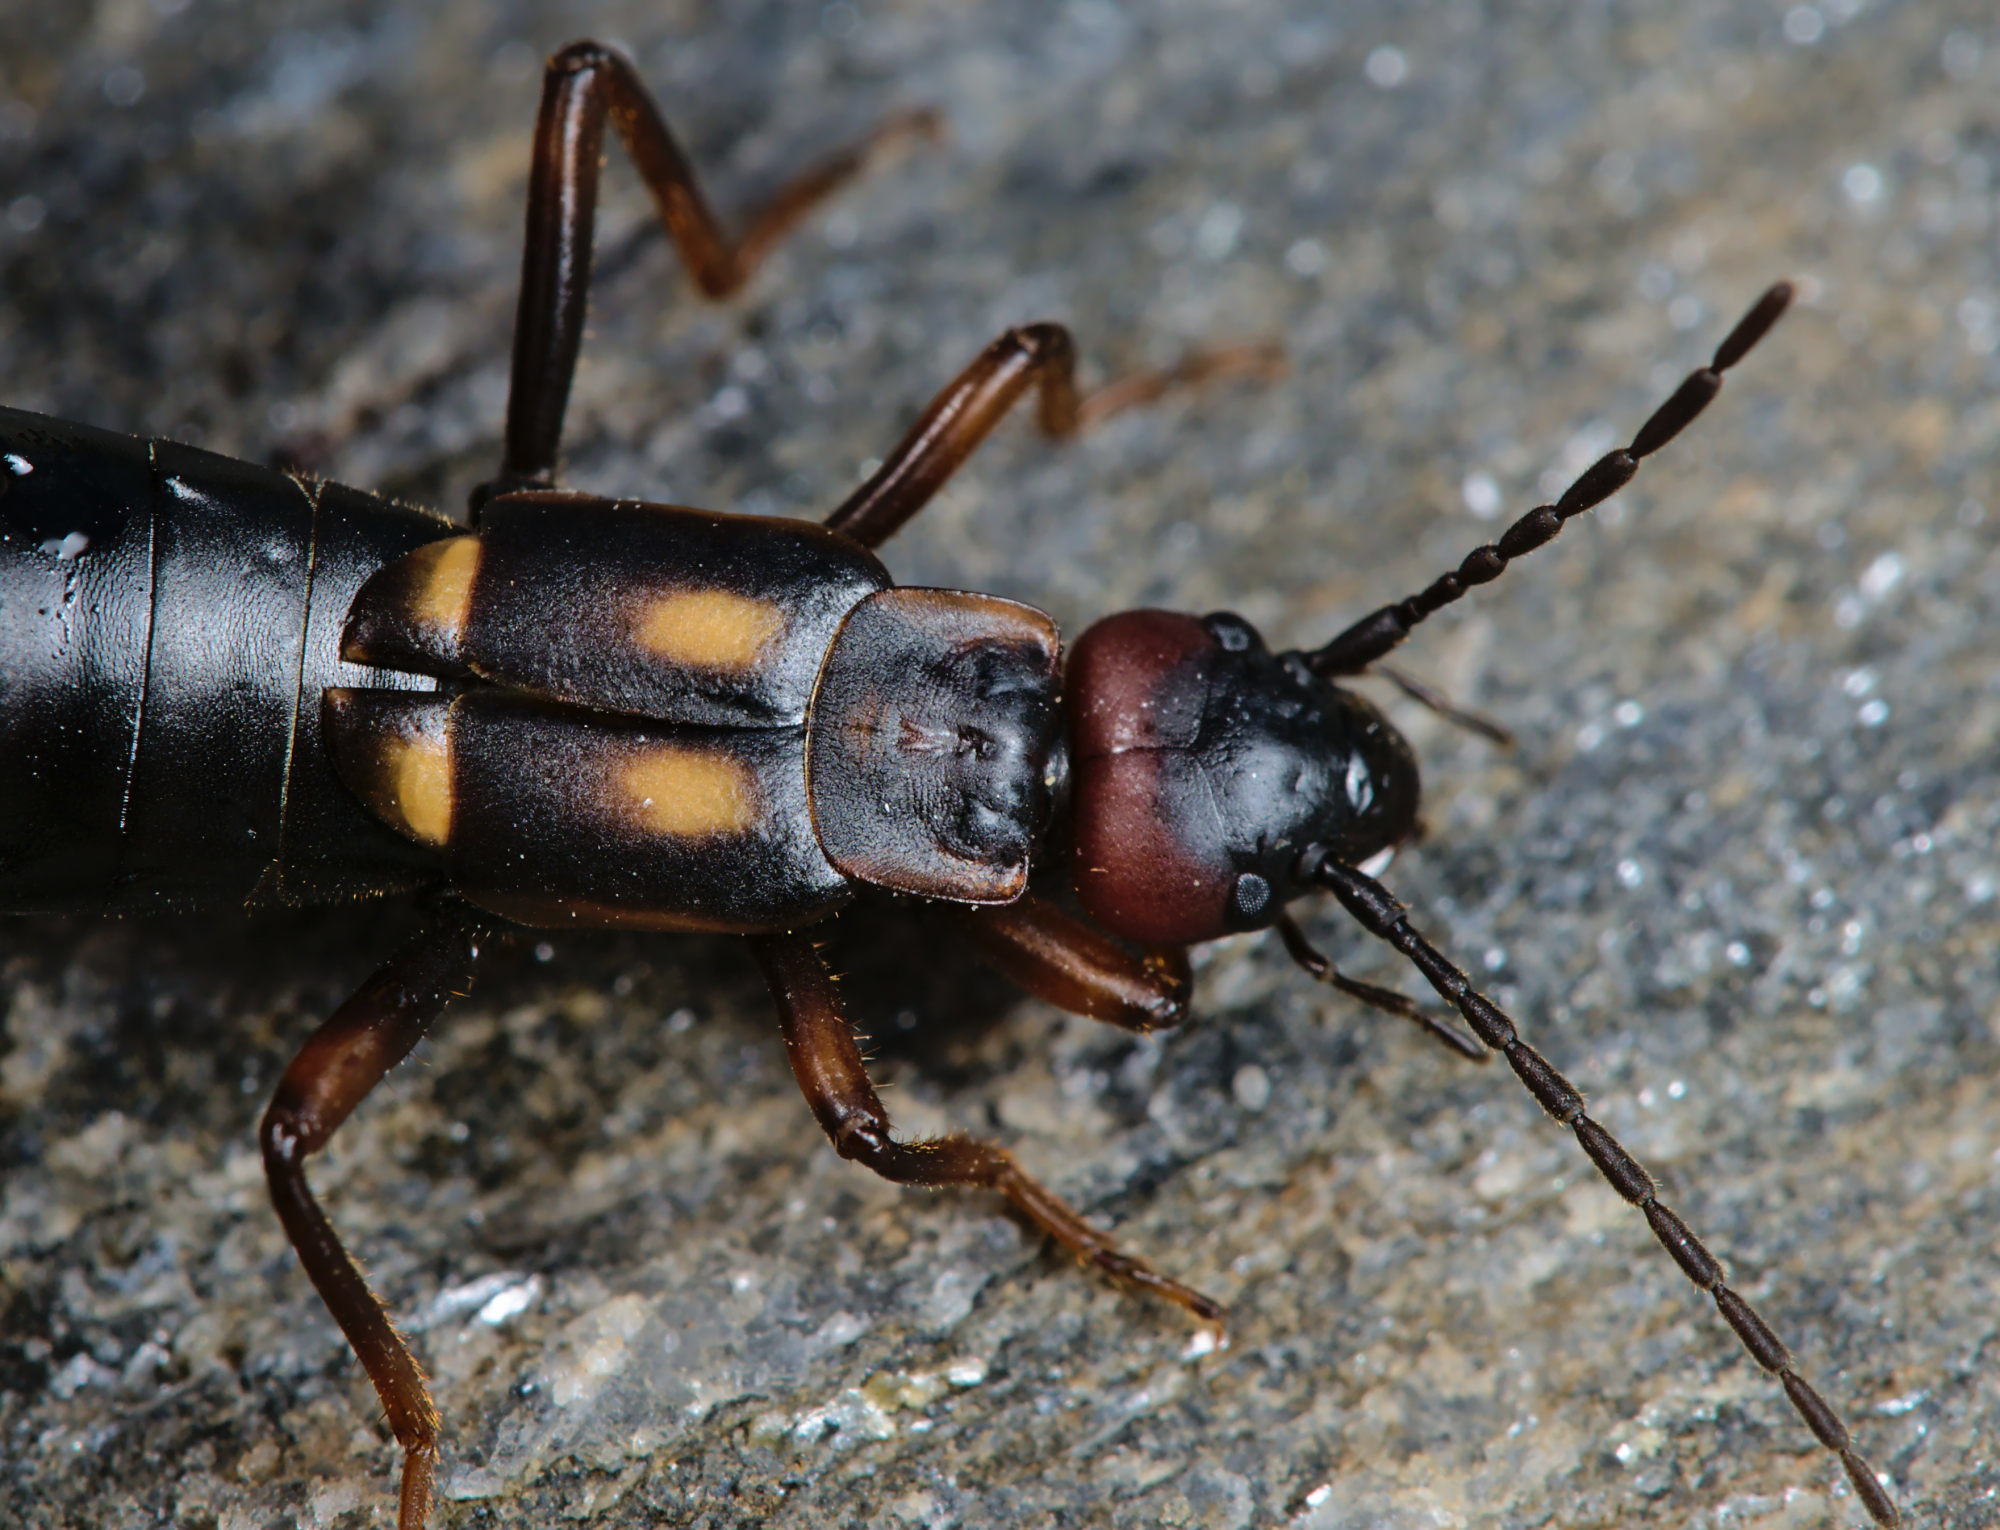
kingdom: Animalia
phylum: Arthropoda
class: Insecta
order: Dermaptera
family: Forficulidae
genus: Anechura
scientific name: Anechura bipunctata
